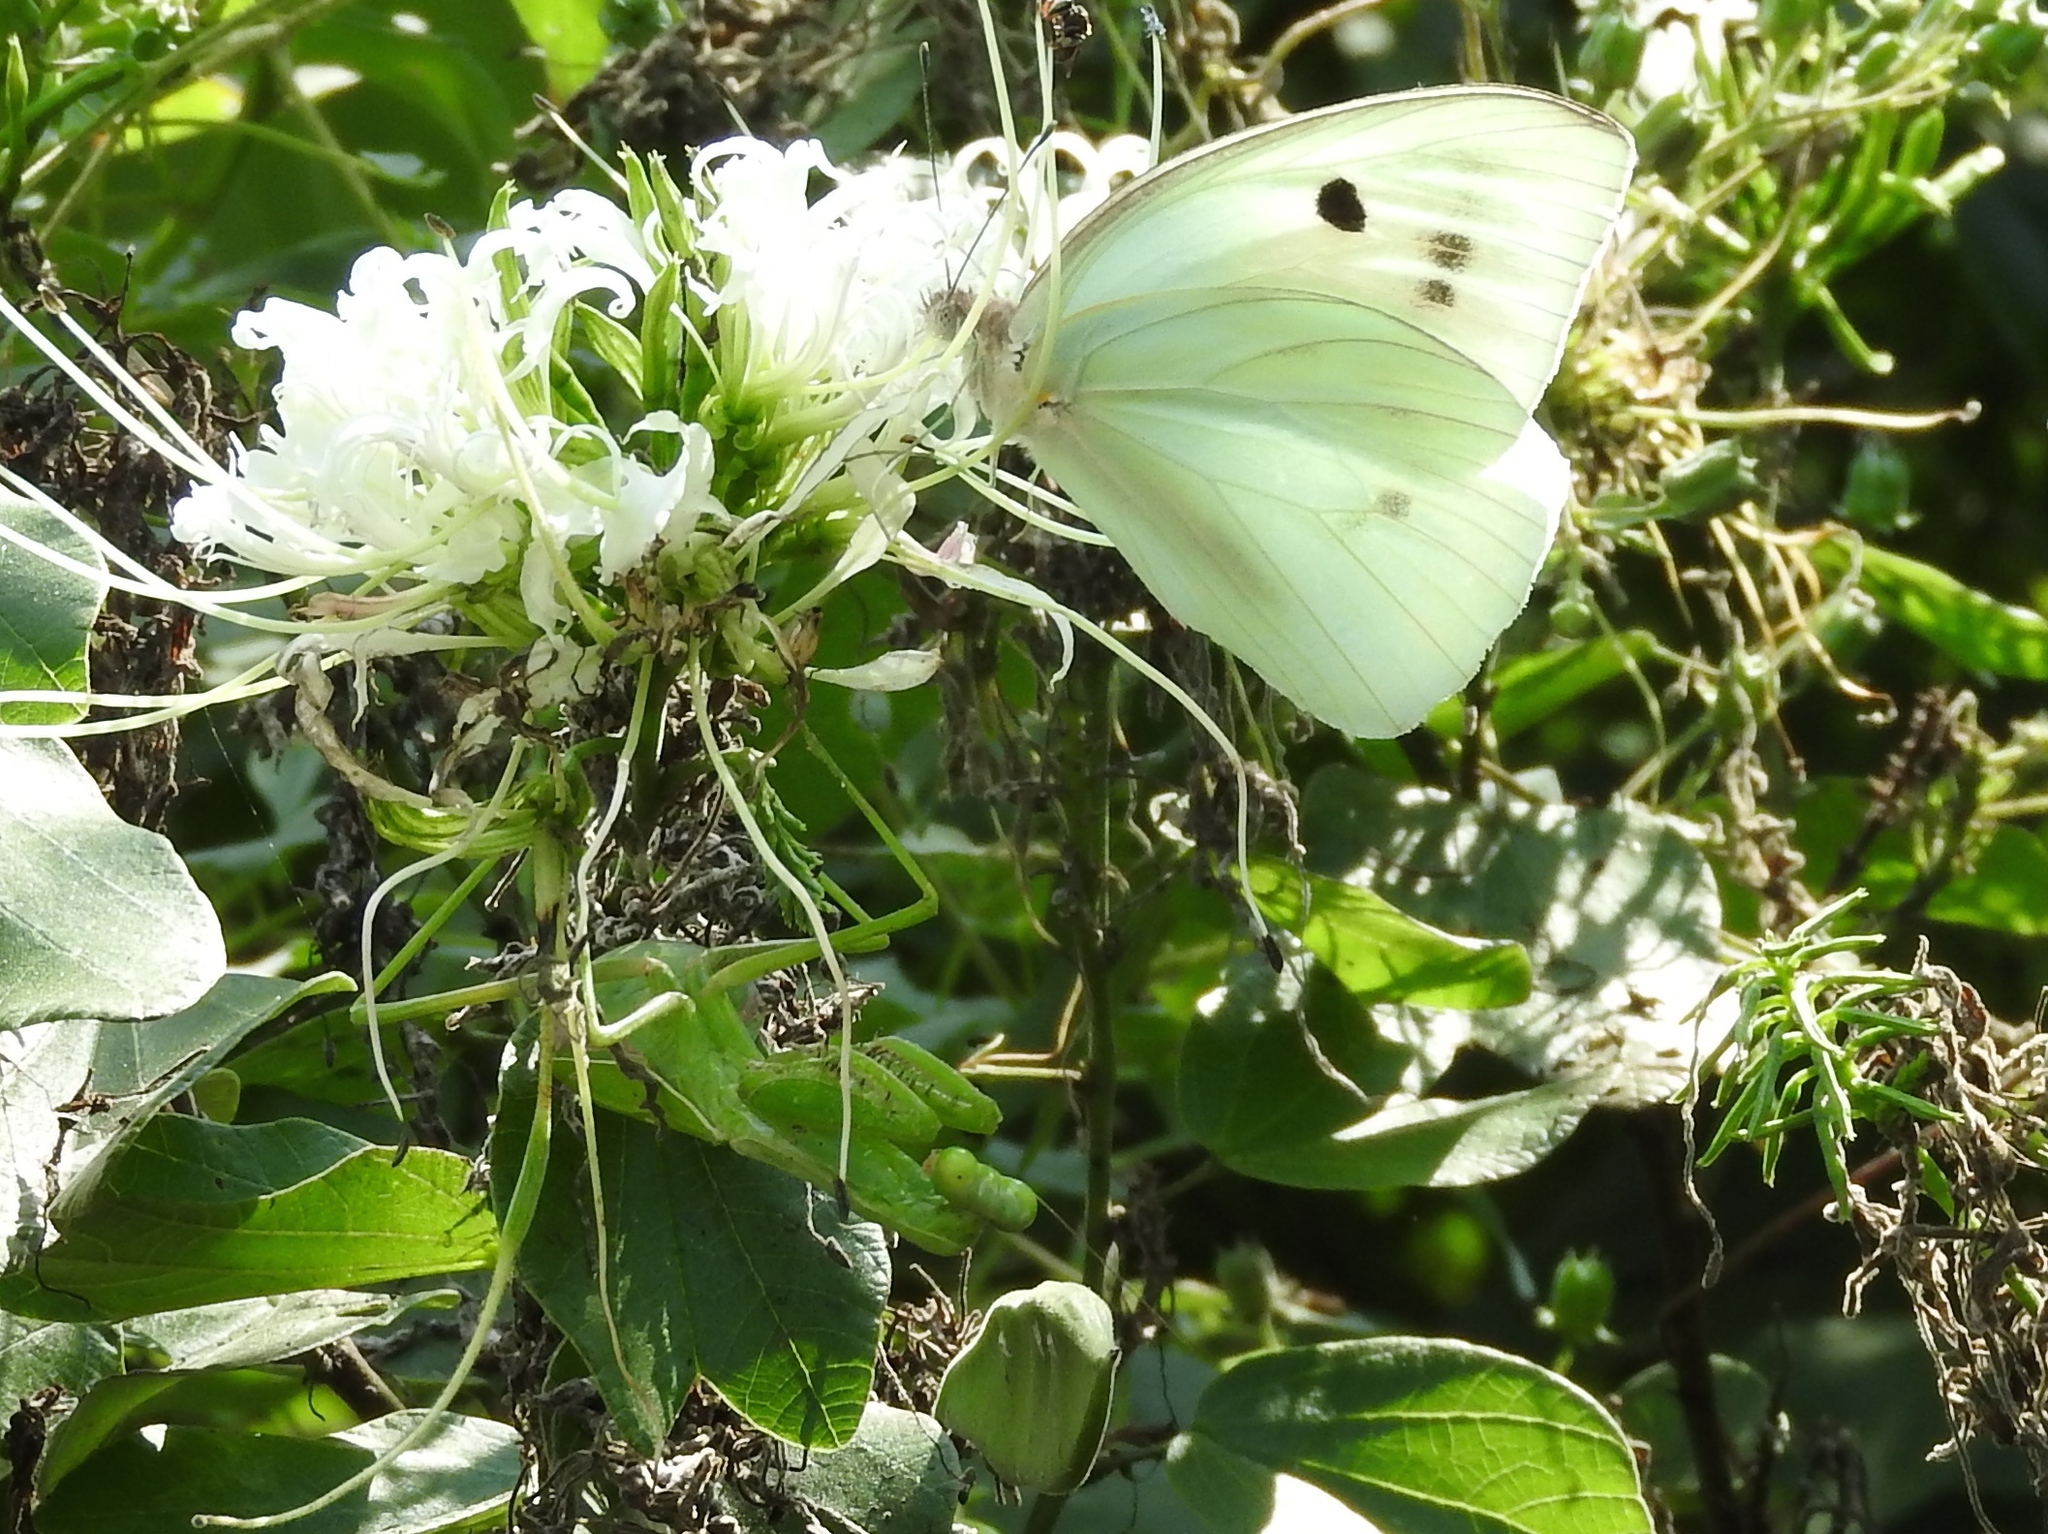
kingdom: Animalia
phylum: Arthropoda
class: Insecta
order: Lepidoptera
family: Pieridae
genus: Ganyra
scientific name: Ganyra josephina
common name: Giant white
